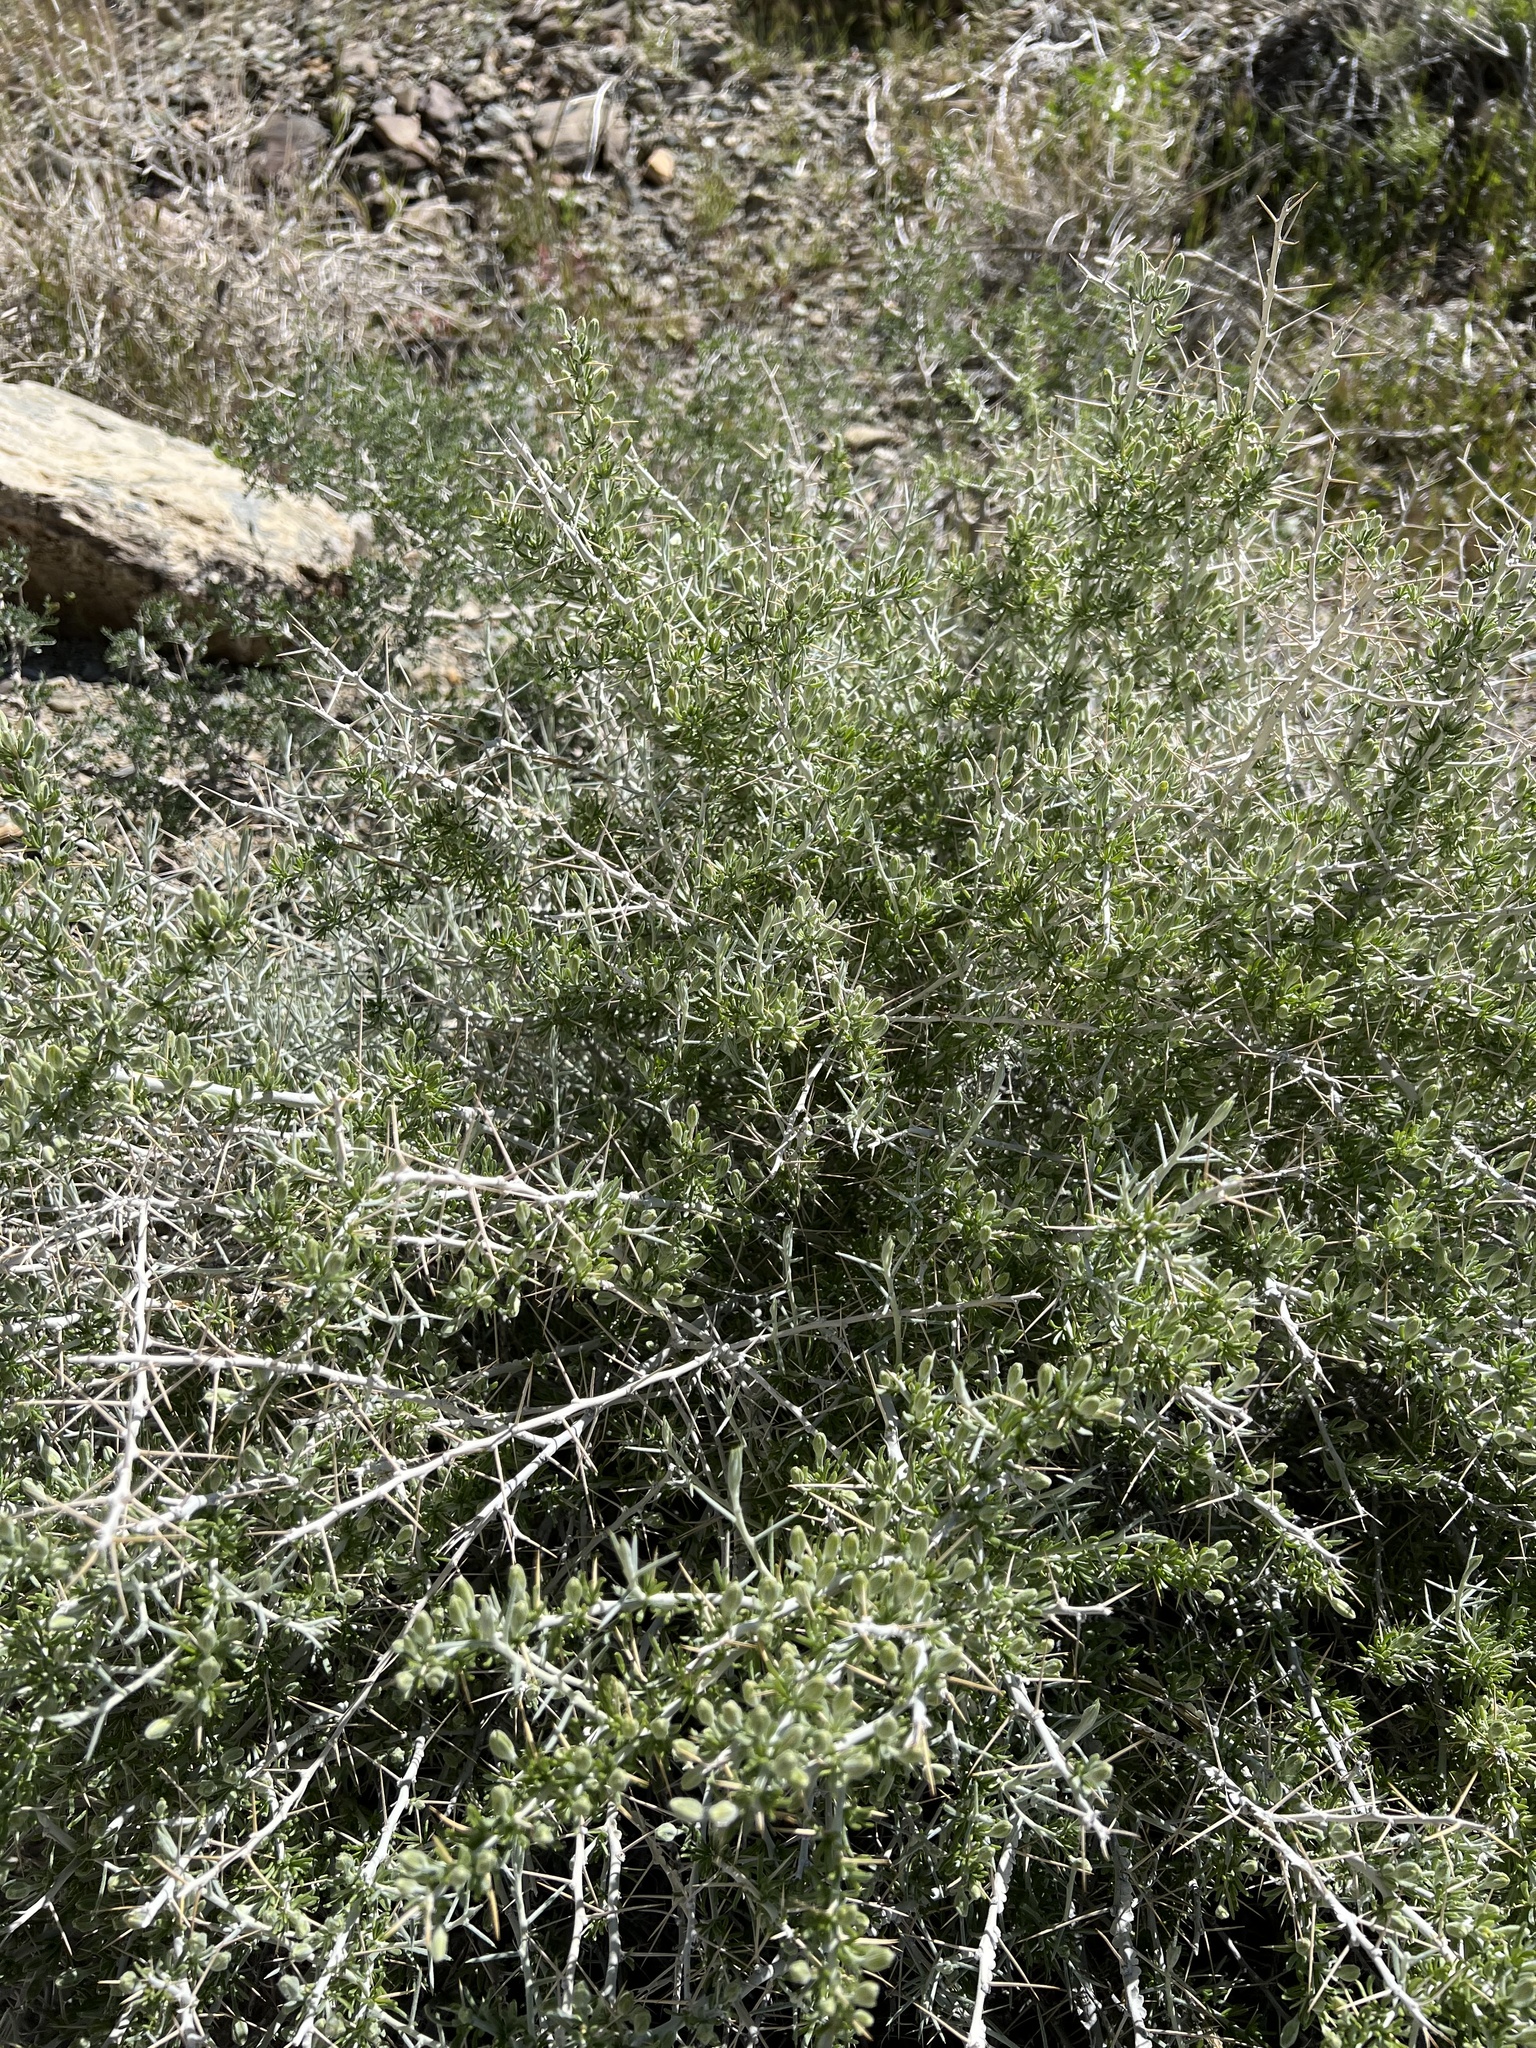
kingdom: Plantae
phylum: Tracheophyta
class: Magnoliopsida
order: Asterales
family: Asteraceae
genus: Tetradymia
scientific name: Tetradymia axillaris
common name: Long-spine horsebrush
